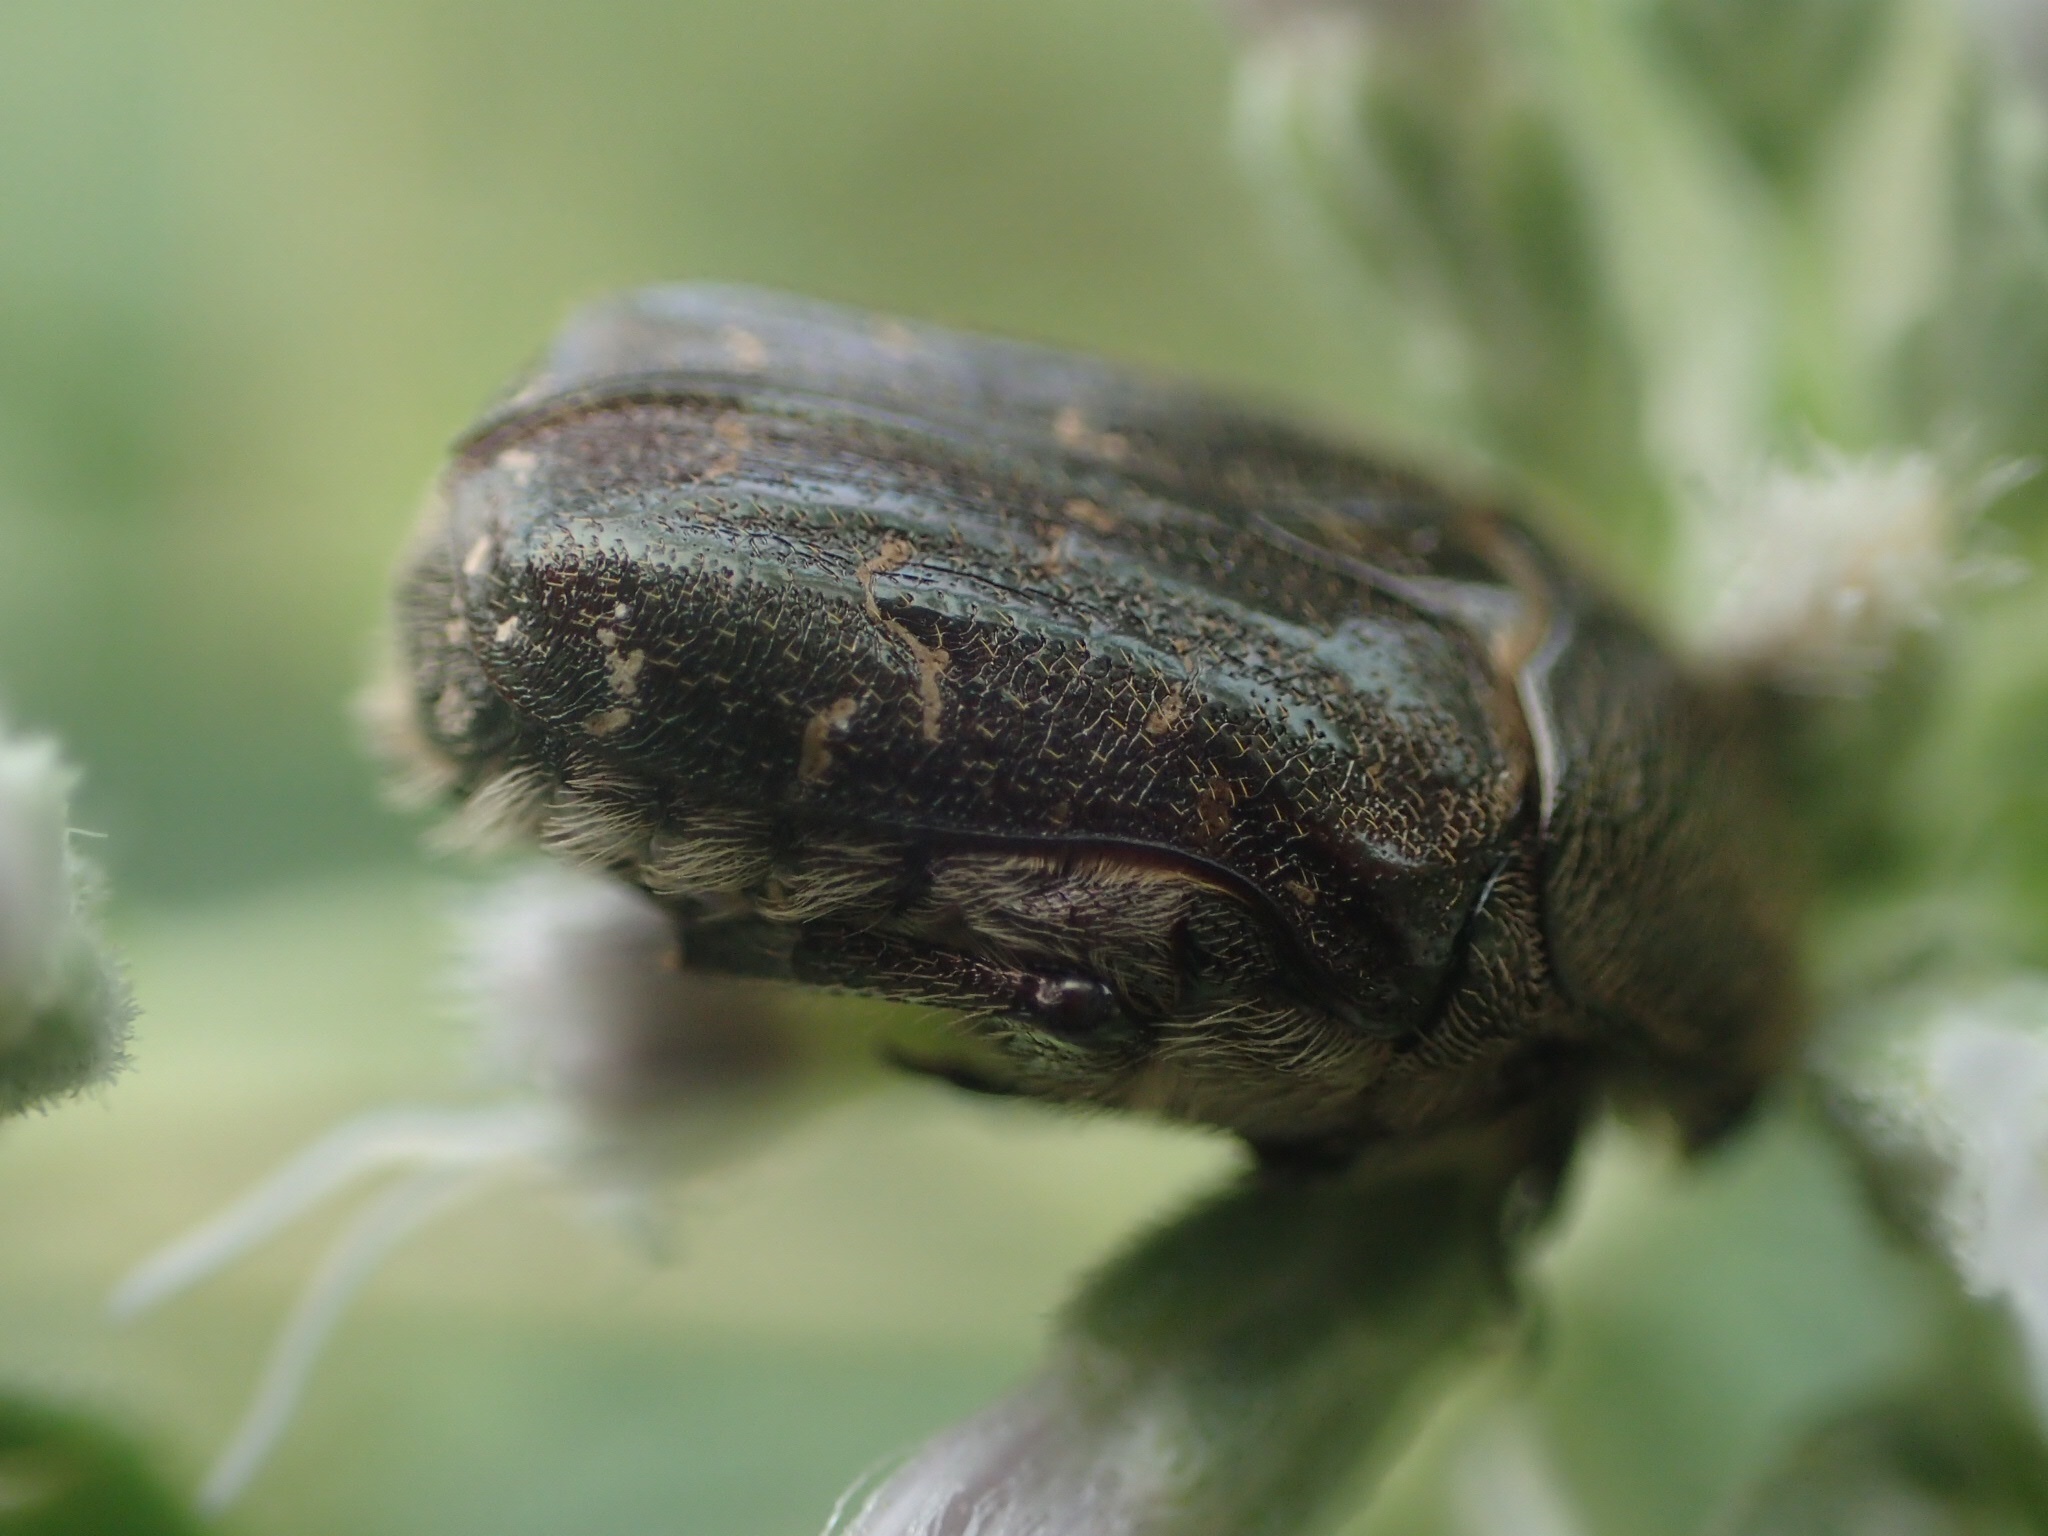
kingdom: Animalia
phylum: Arthropoda
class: Insecta
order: Coleoptera
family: Scarabaeidae
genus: Euphoria
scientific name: Euphoria sepulcralis
